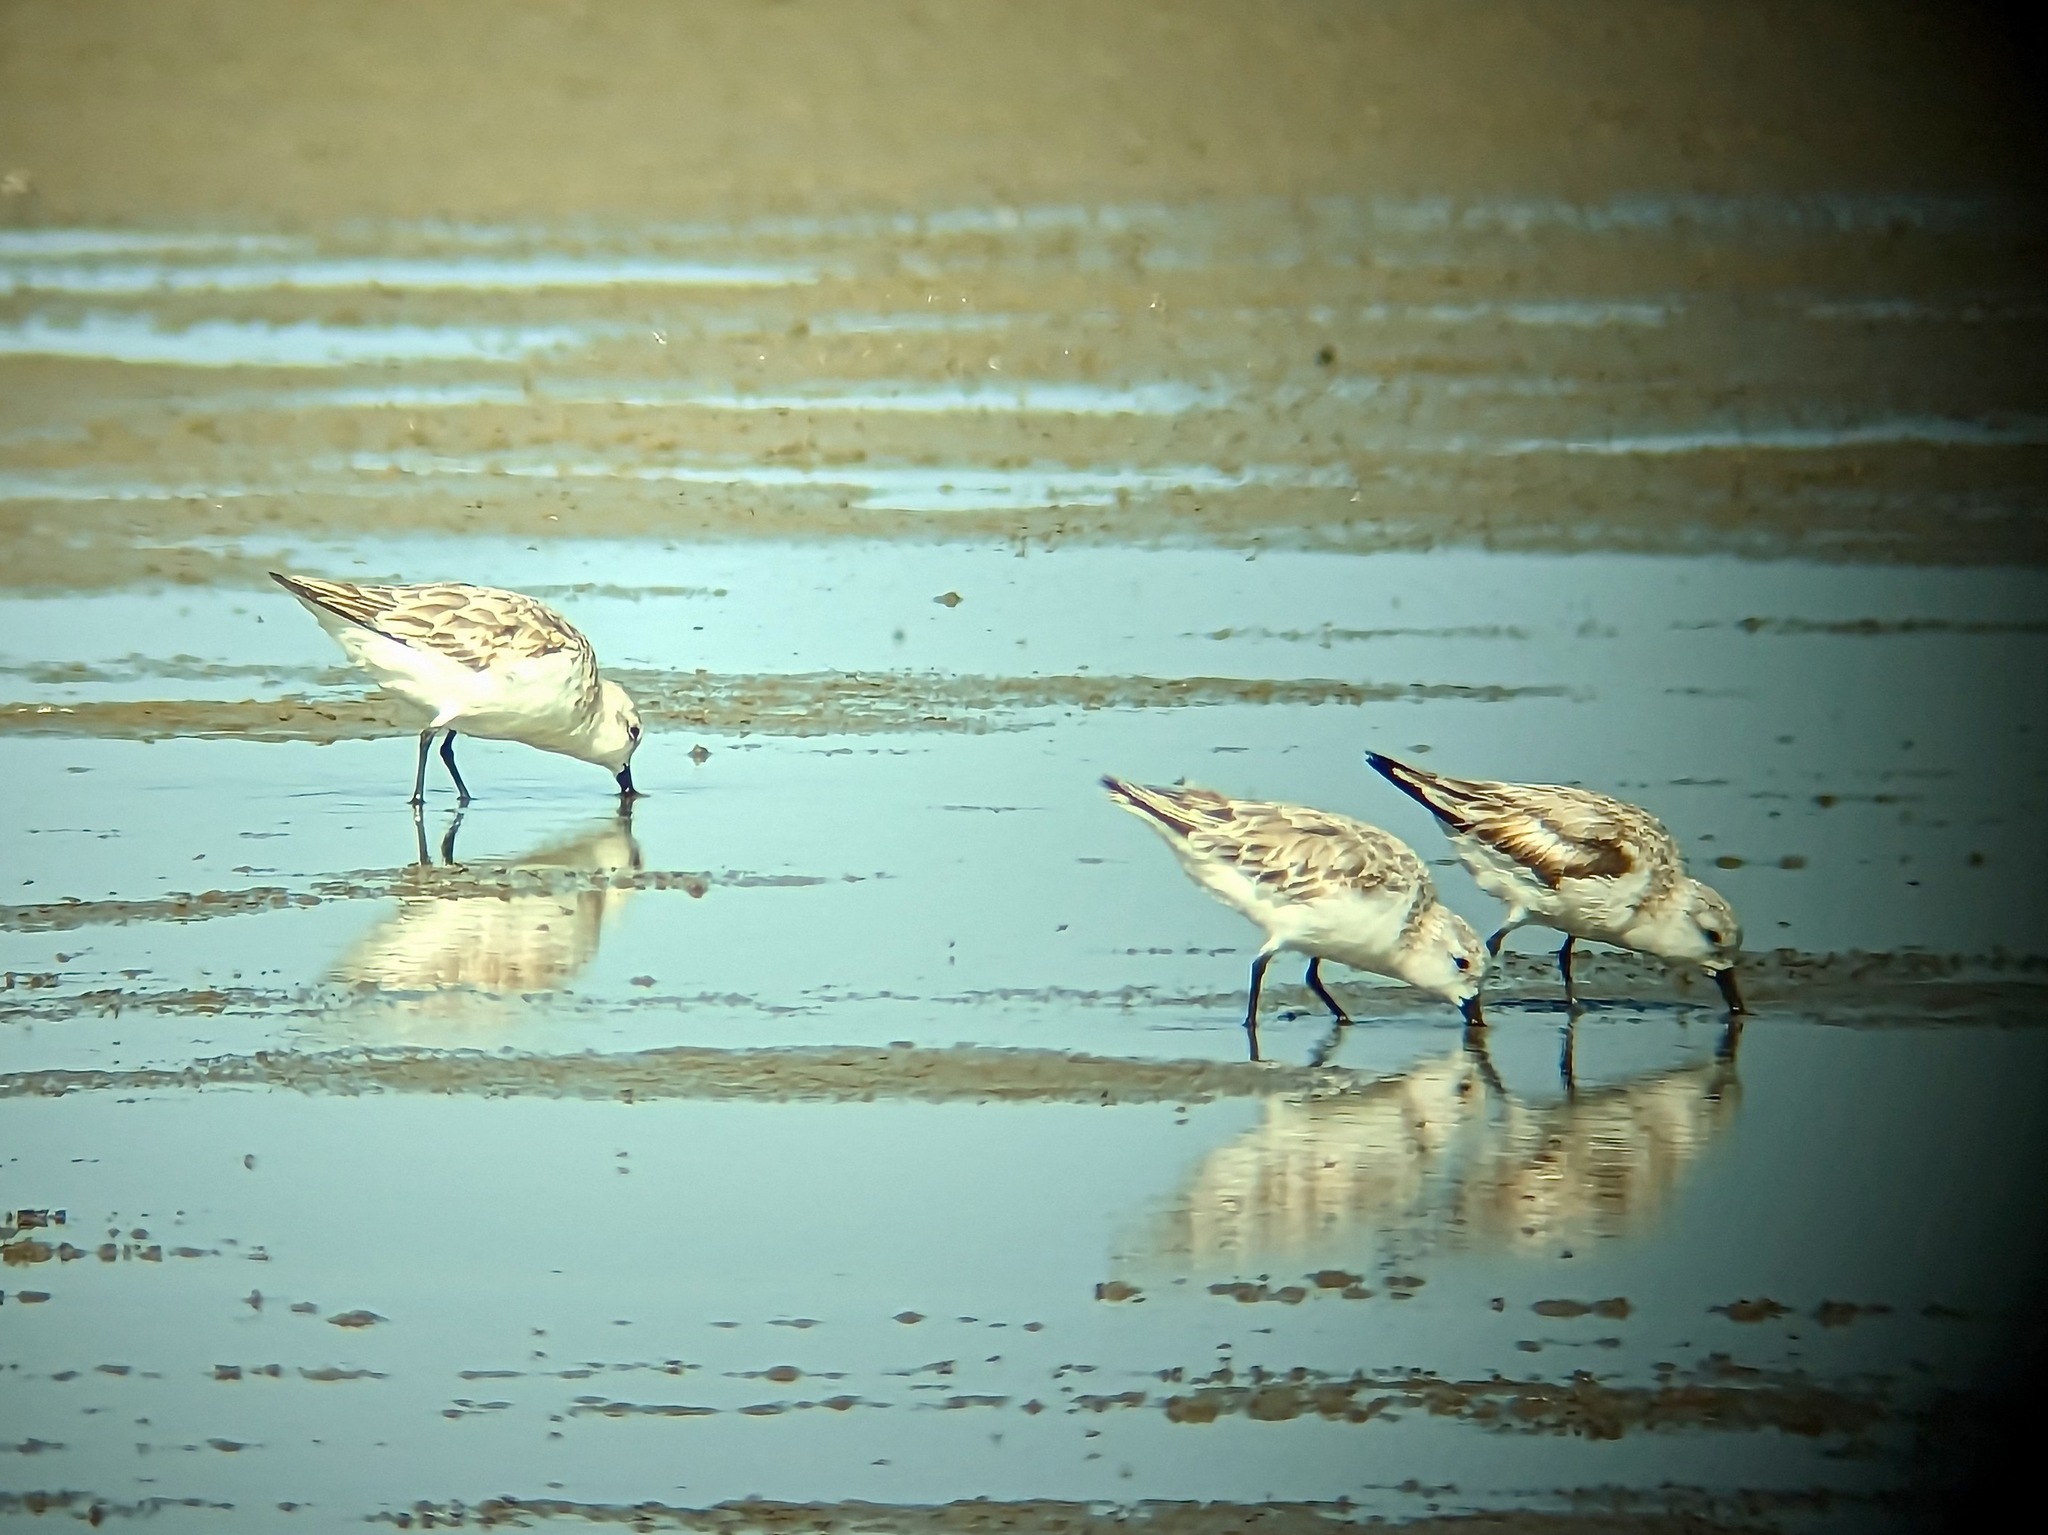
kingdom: Animalia
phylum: Chordata
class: Aves
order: Charadriiformes
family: Scolopacidae
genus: Calidris
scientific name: Calidris alba
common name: Sanderling
